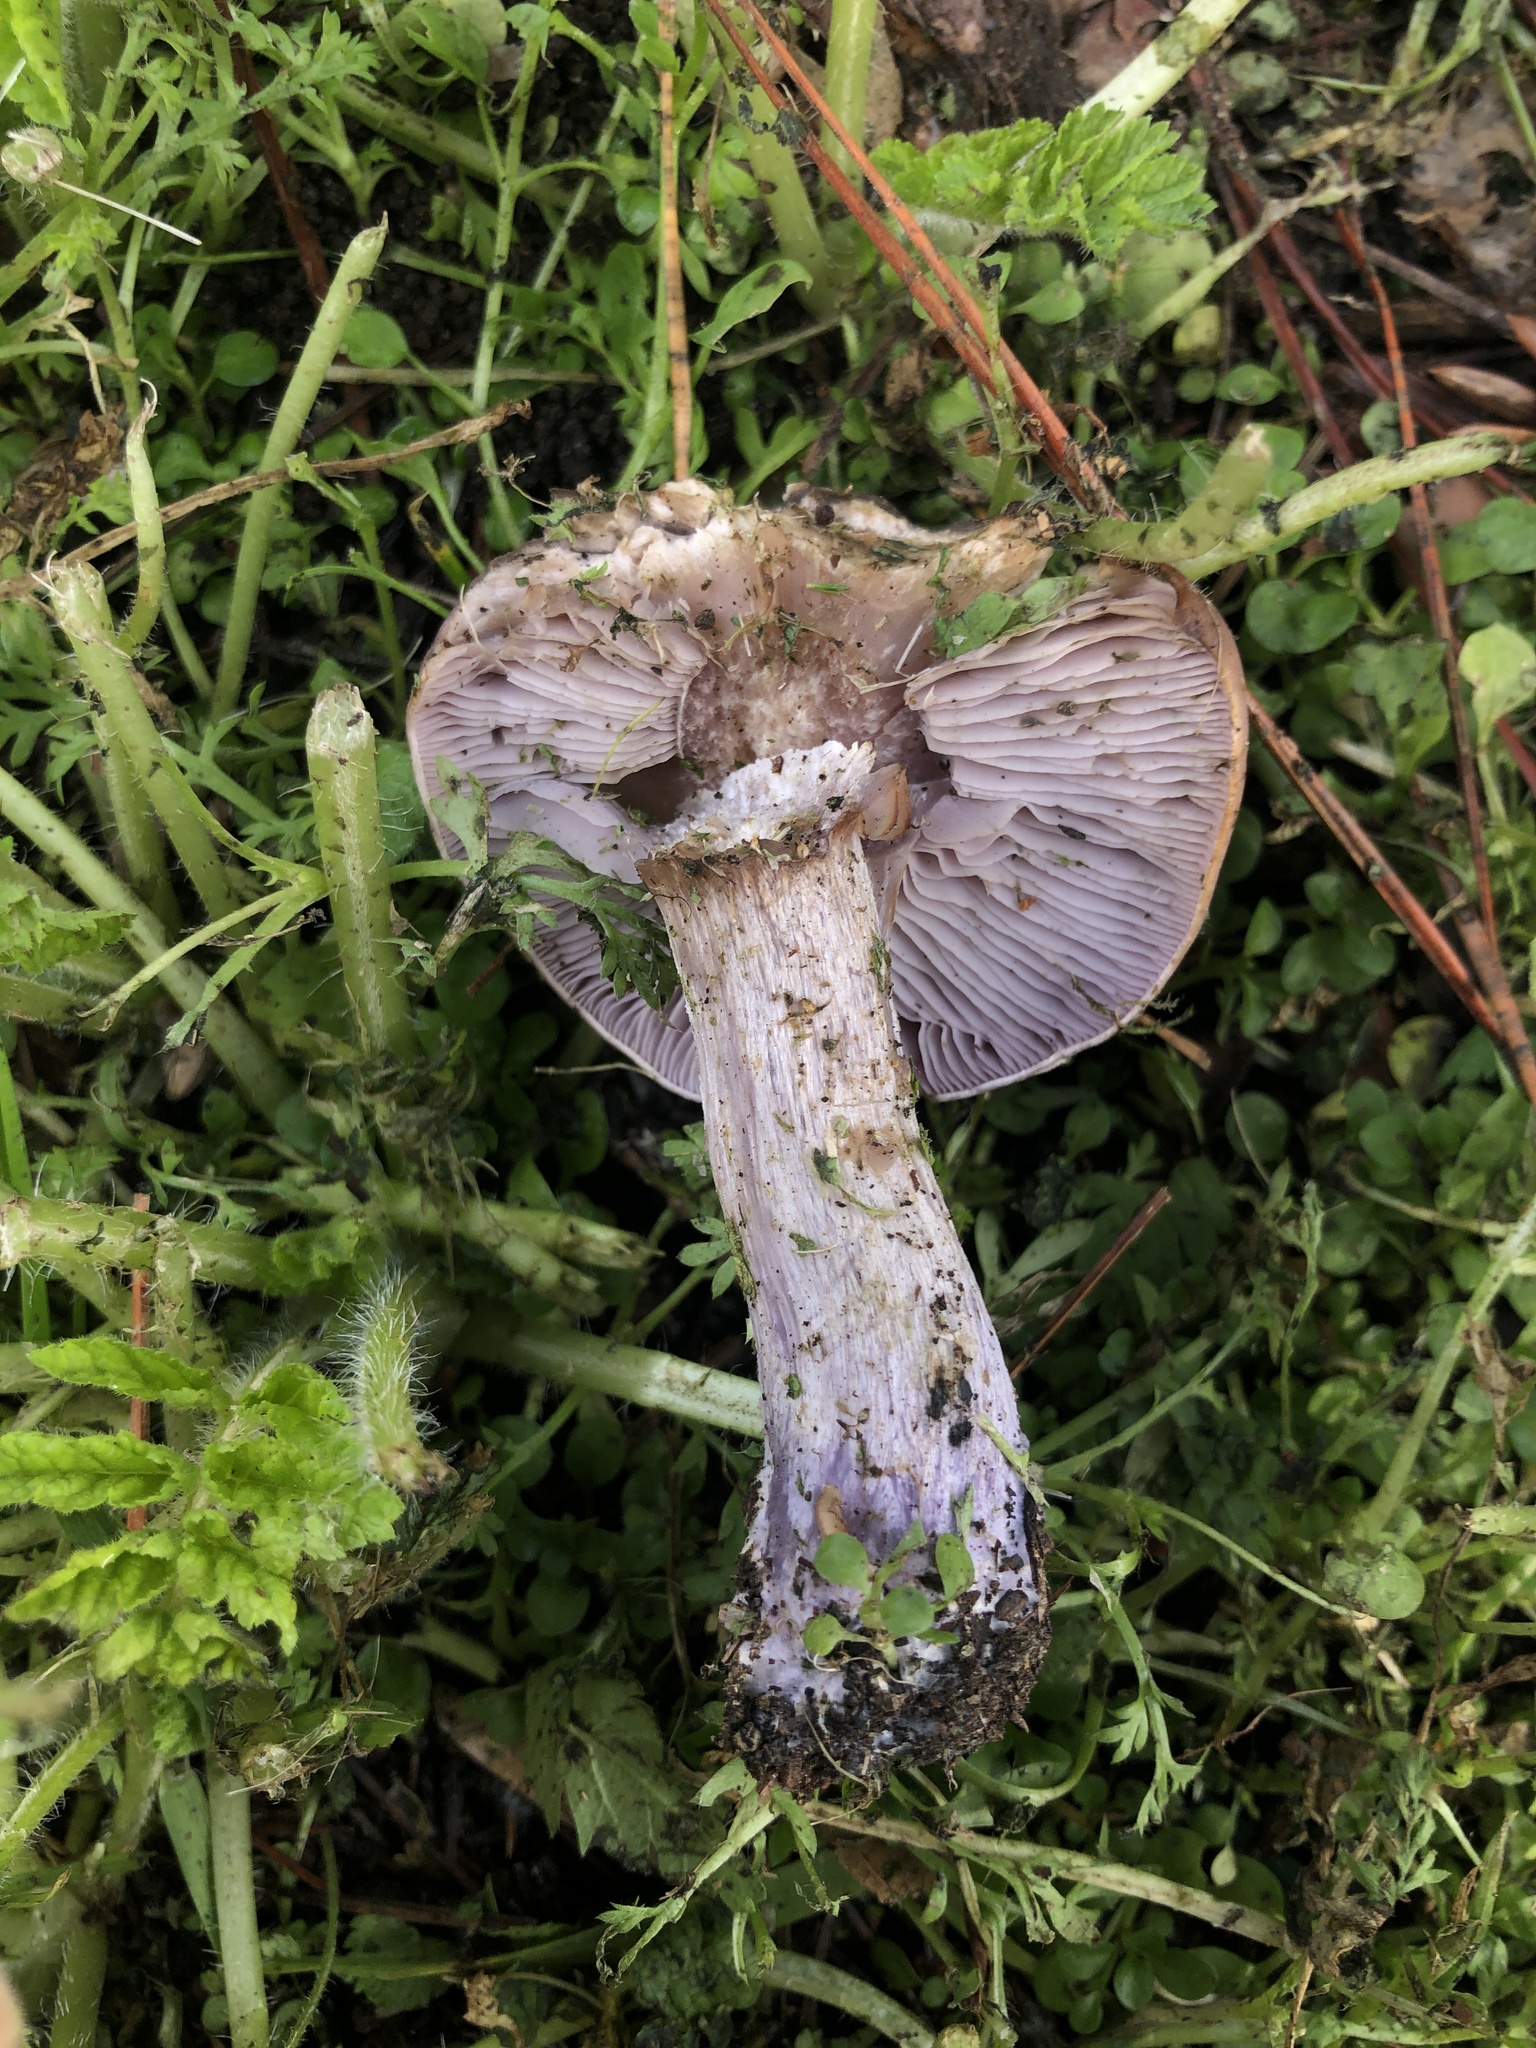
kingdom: Fungi
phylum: Basidiomycota
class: Agaricomycetes
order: Agaricales
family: Tricholomataceae
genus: Collybia
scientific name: Collybia
